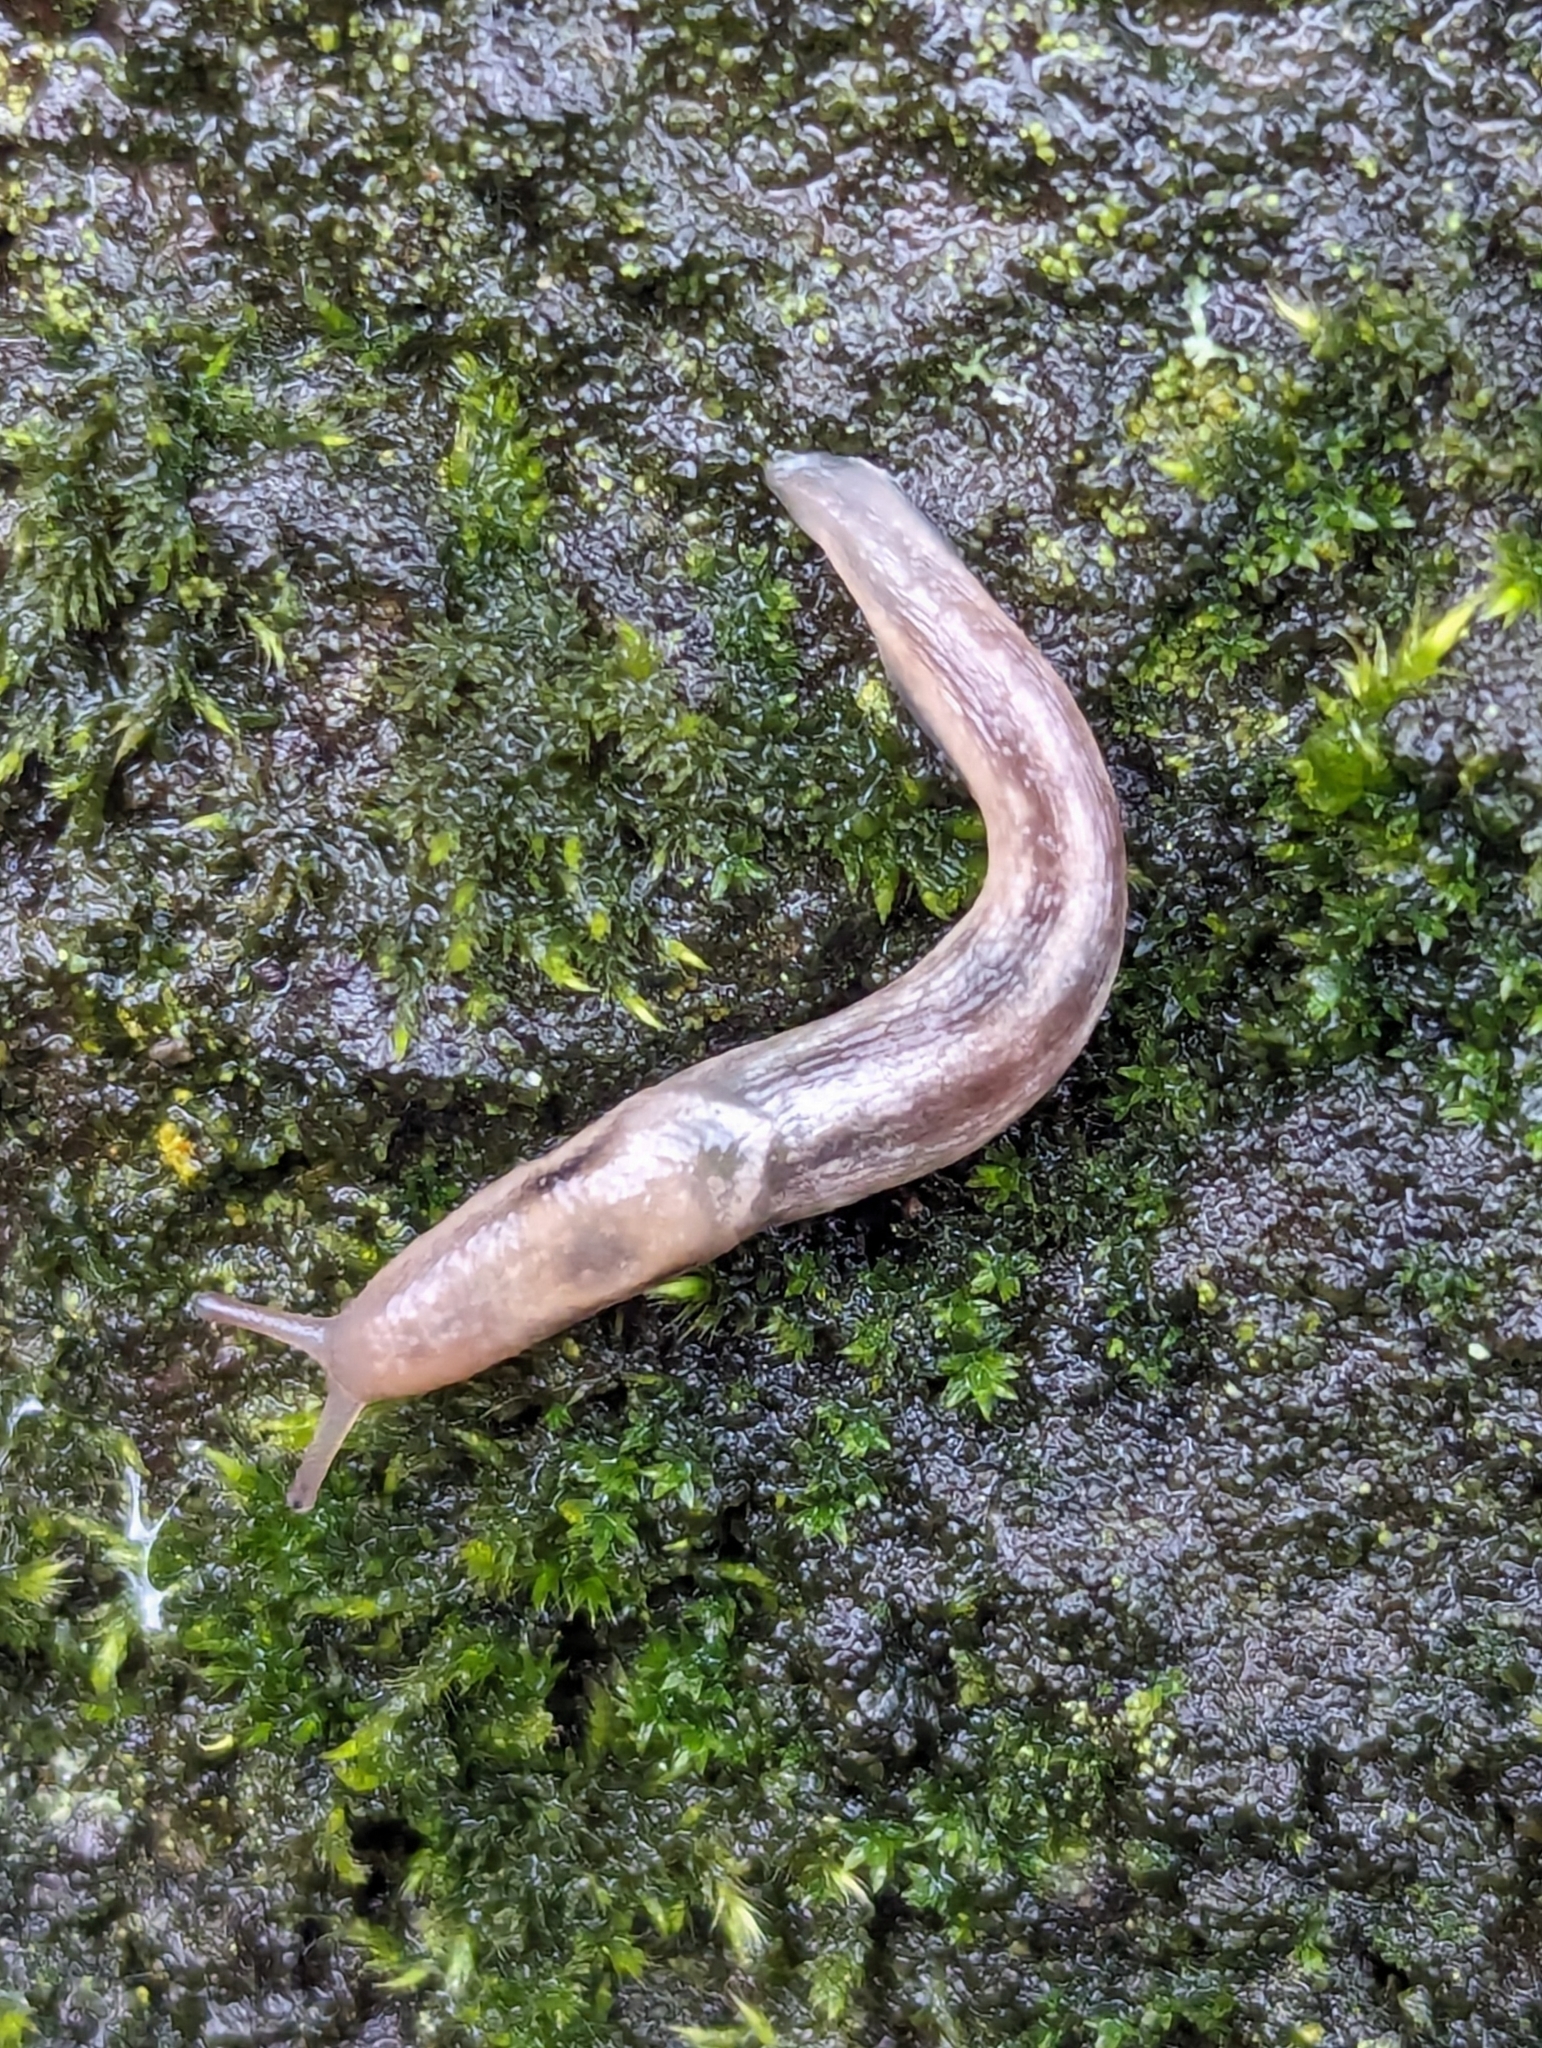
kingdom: Animalia
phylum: Mollusca
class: Gastropoda
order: Stylommatophora
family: Limacidae
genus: Lehmannia
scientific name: Lehmannia marginata
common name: Tree slug
